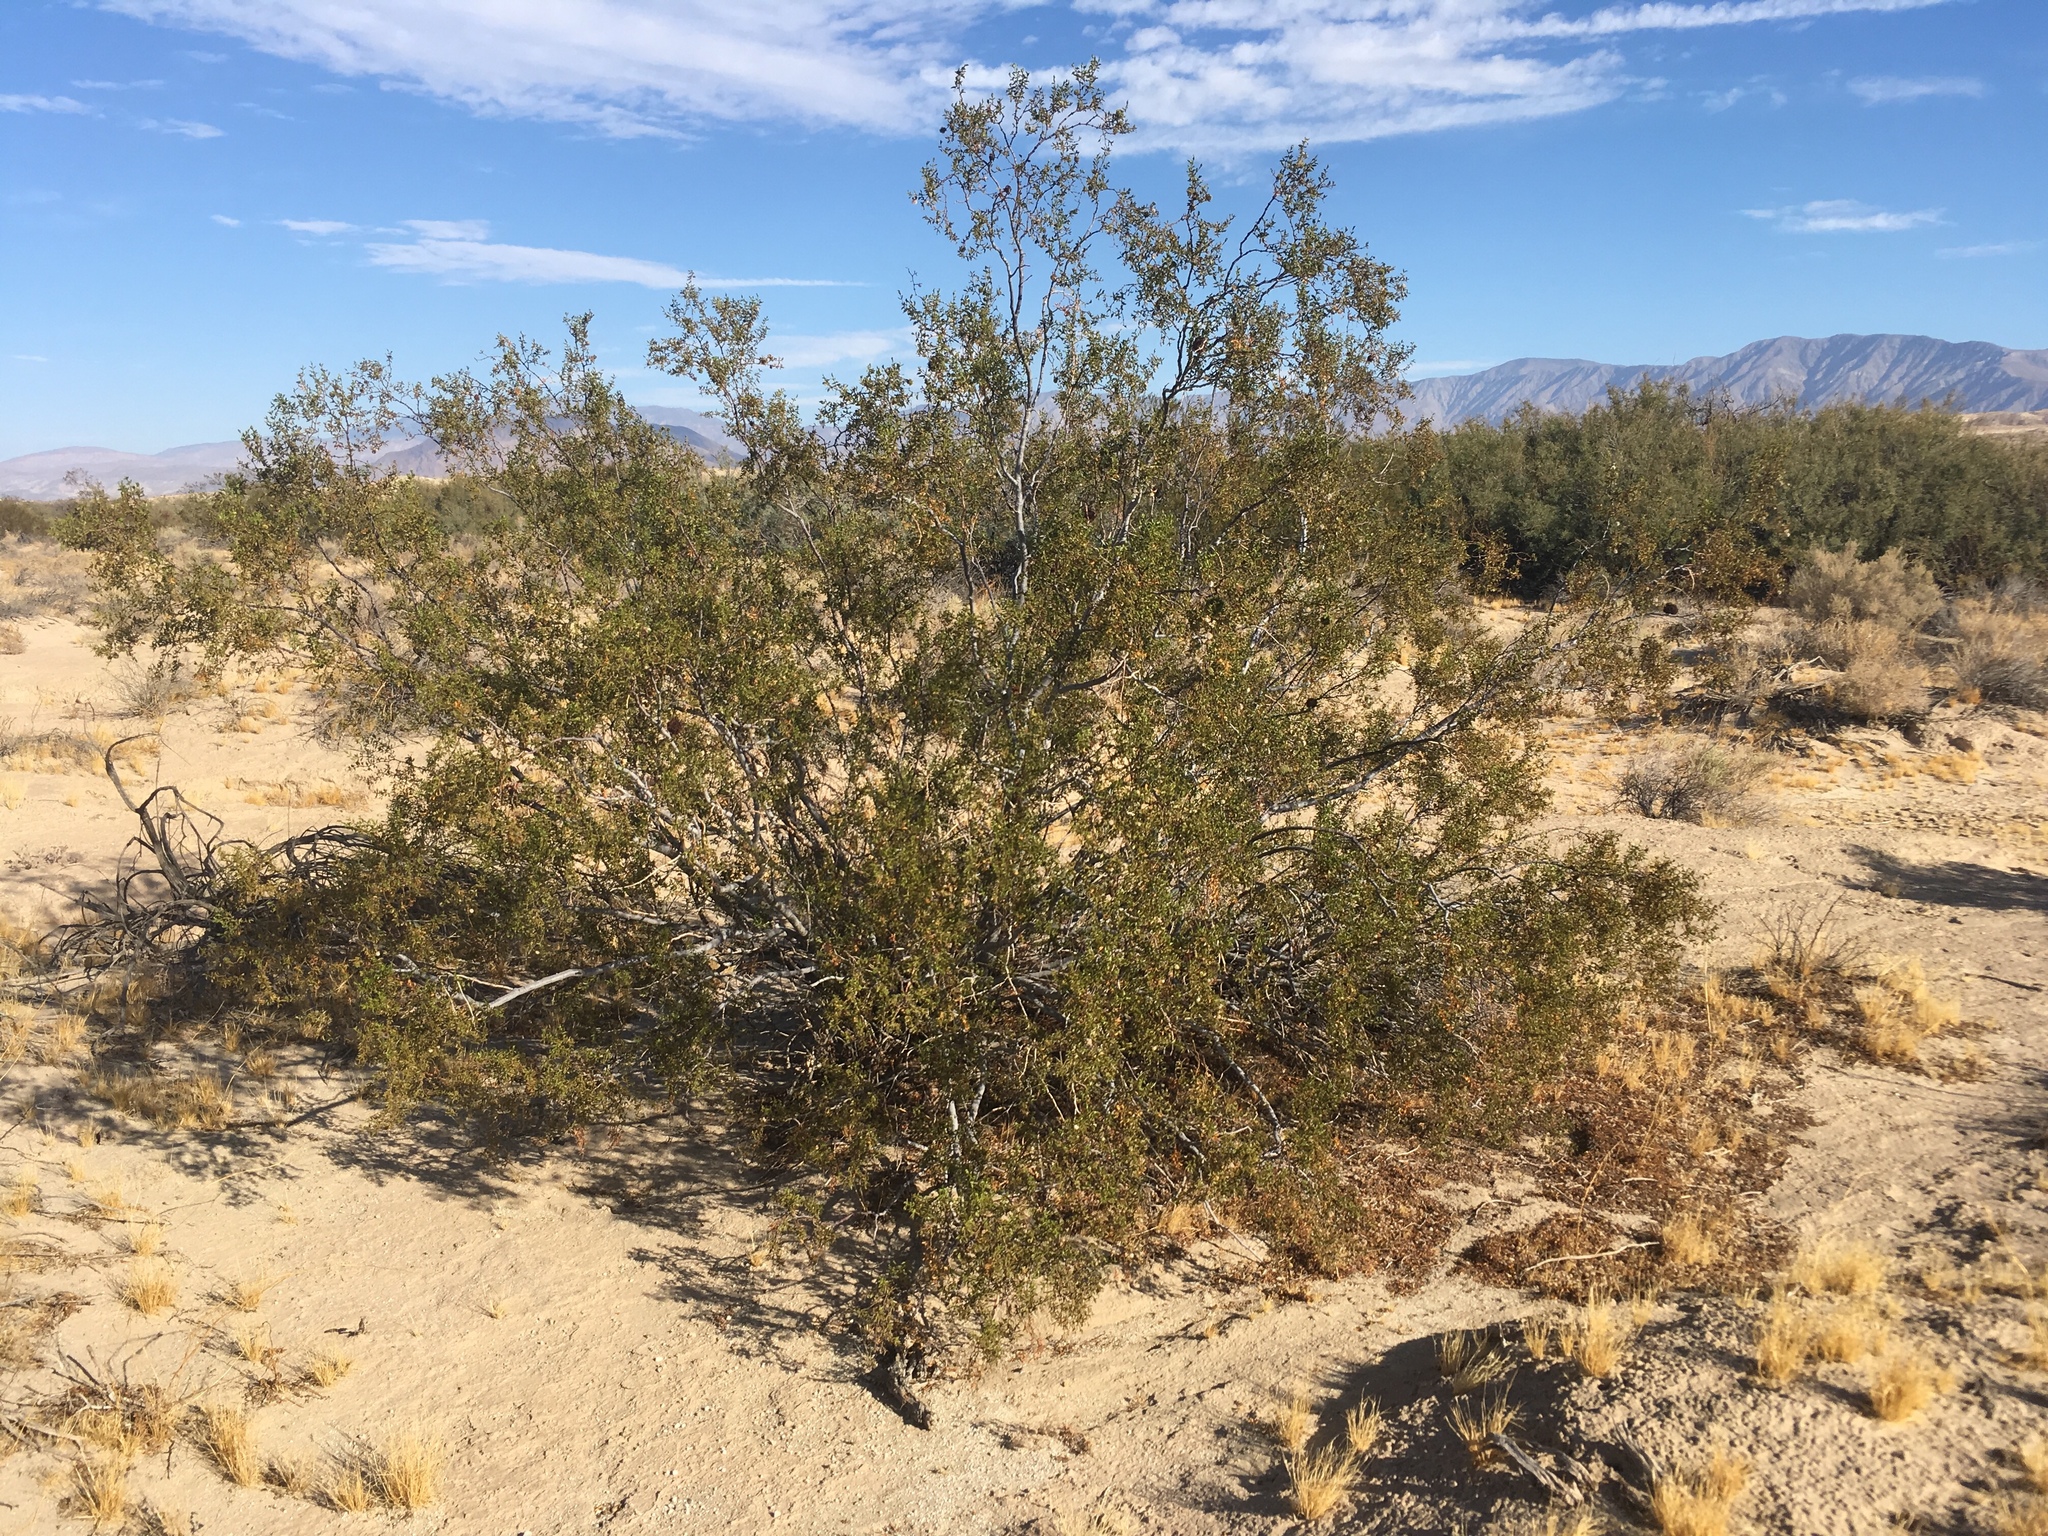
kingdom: Plantae
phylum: Tracheophyta
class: Magnoliopsida
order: Zygophyllales
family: Zygophyllaceae
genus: Larrea
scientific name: Larrea tridentata
